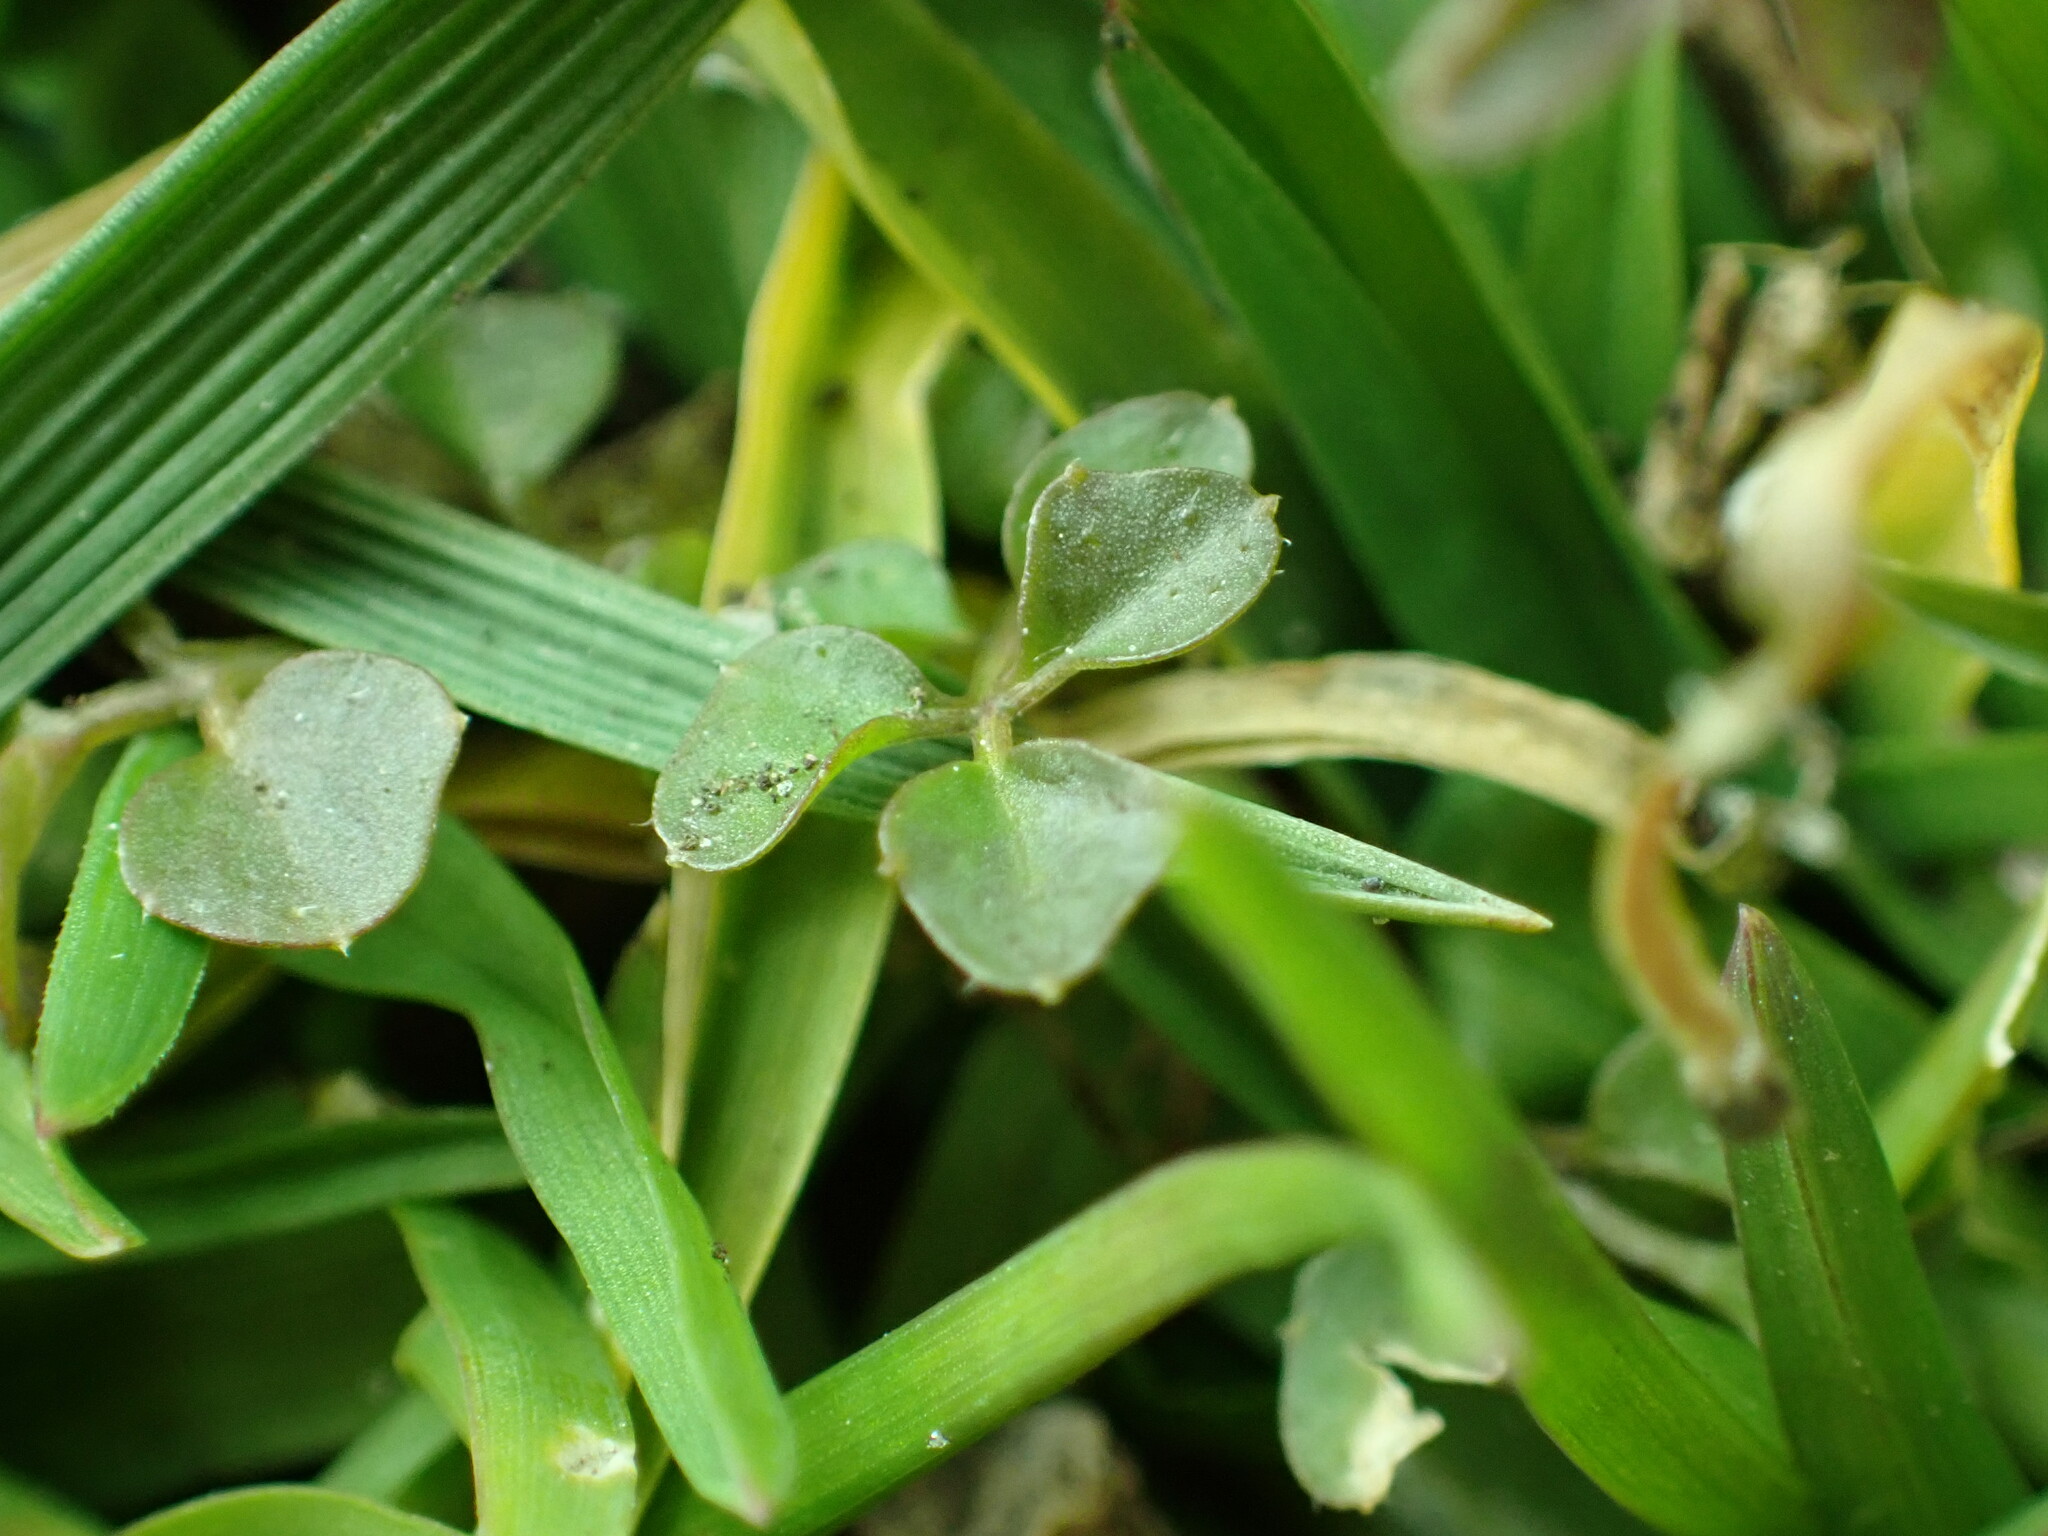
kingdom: Plantae
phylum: Tracheophyta
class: Magnoliopsida
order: Brassicales
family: Brassicaceae
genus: Cardamine
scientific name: Cardamine hirsuta
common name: Hairy bittercress
